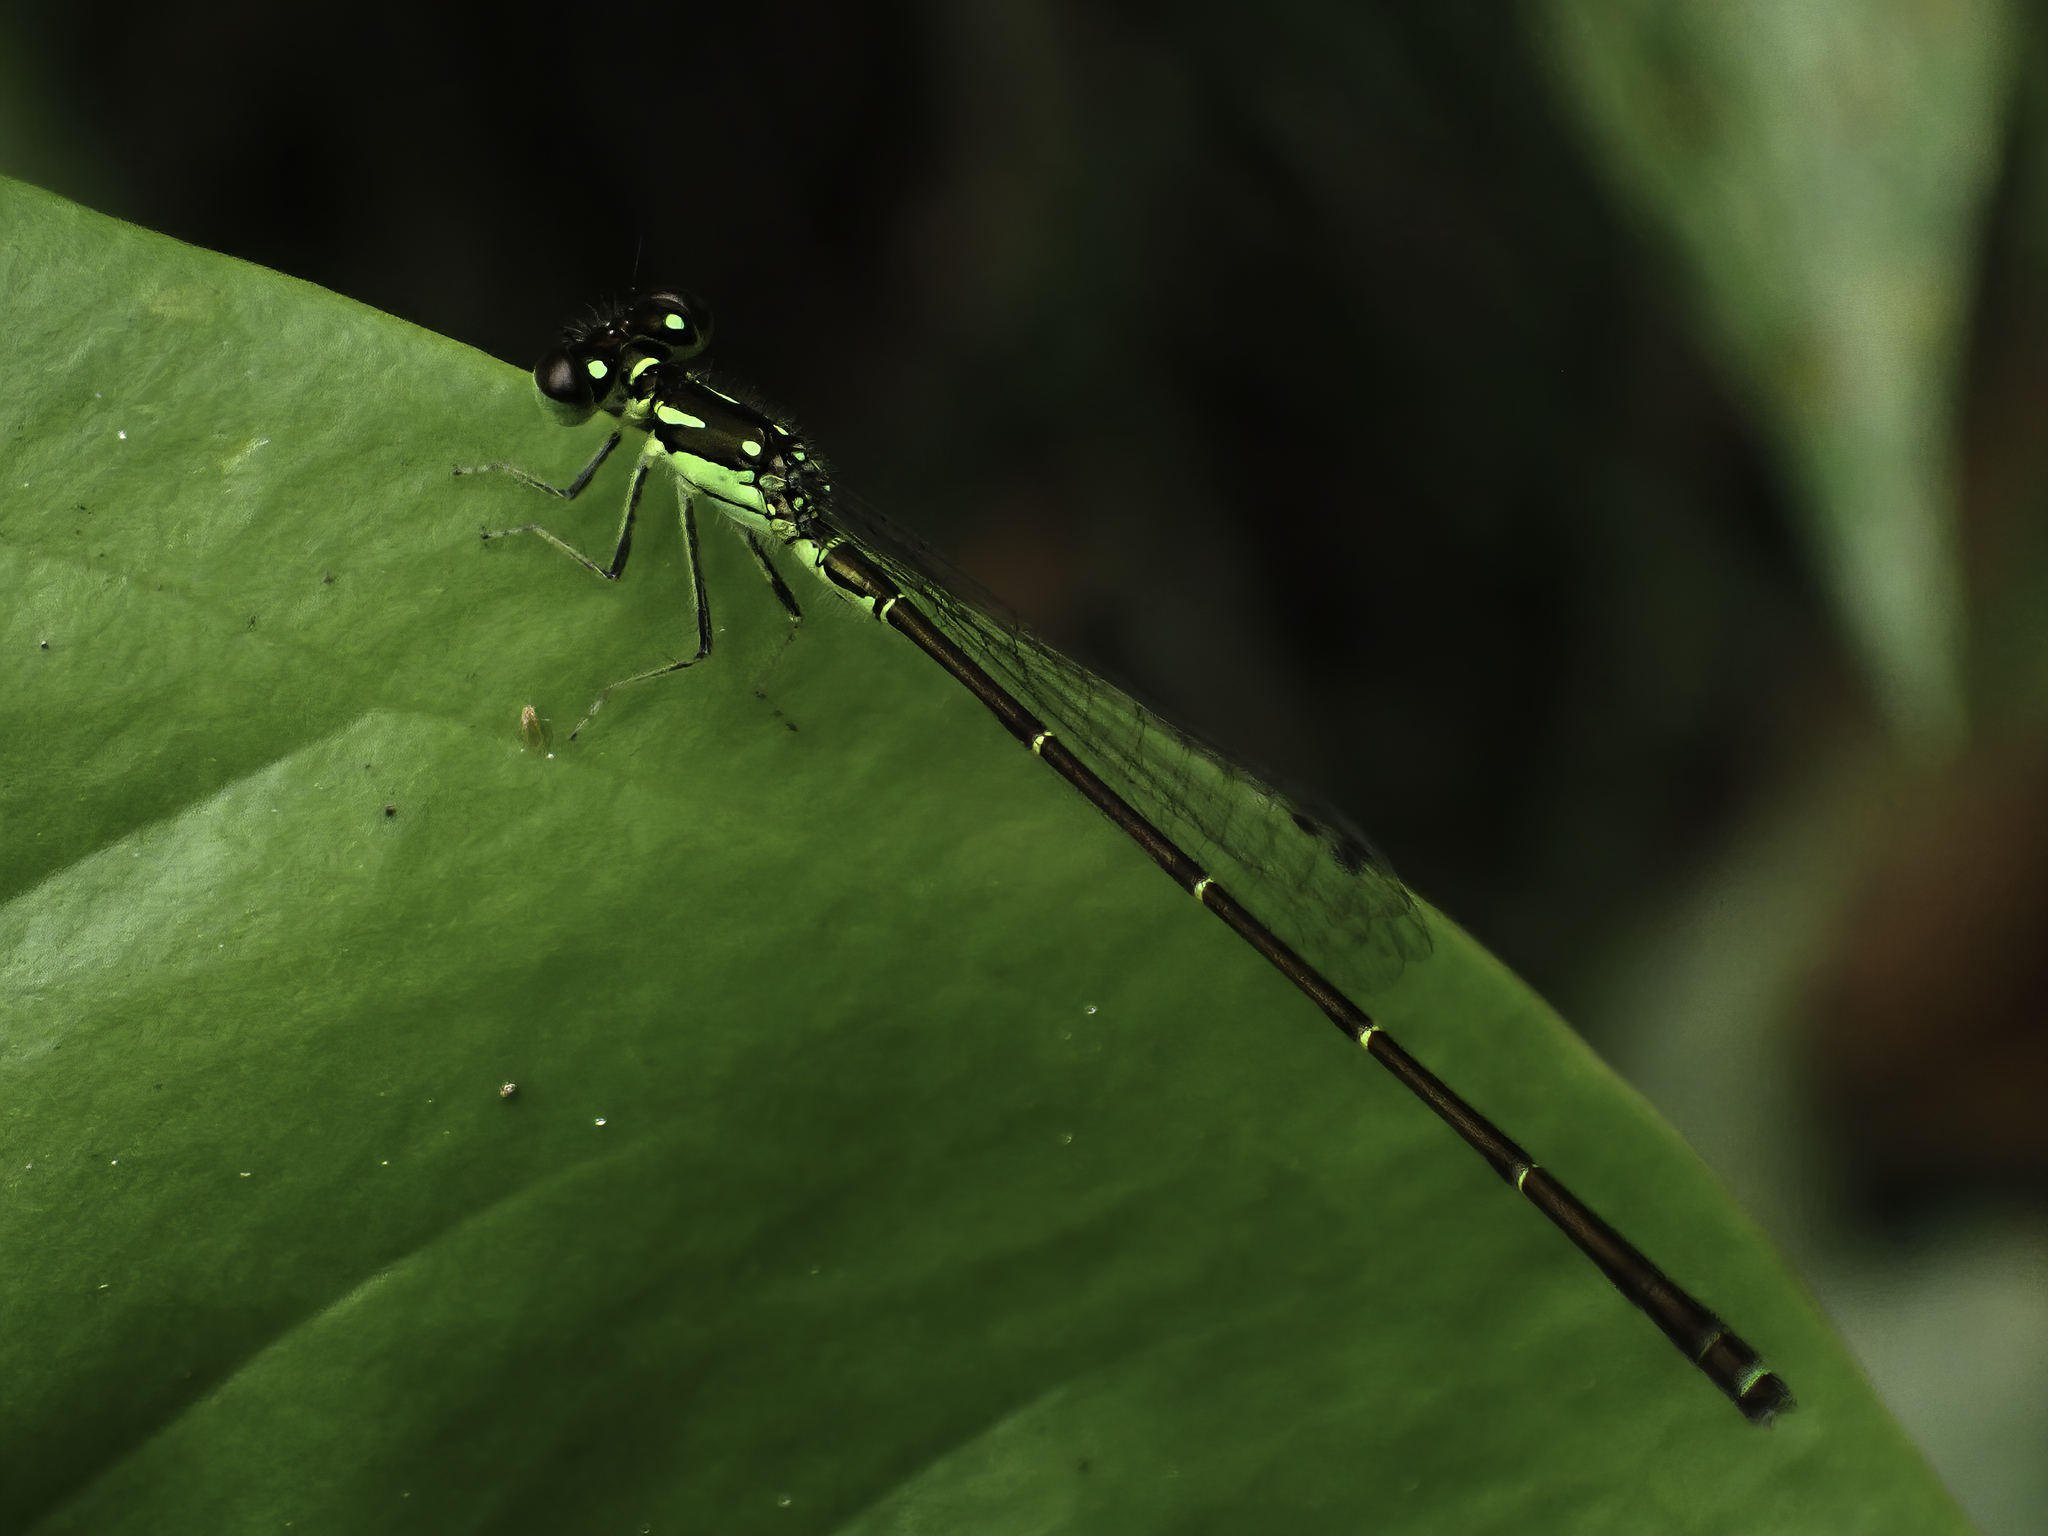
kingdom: Animalia
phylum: Arthropoda
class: Insecta
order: Odonata
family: Coenagrionidae
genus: Ischnura
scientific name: Ischnura posita
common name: Fragile forktail
